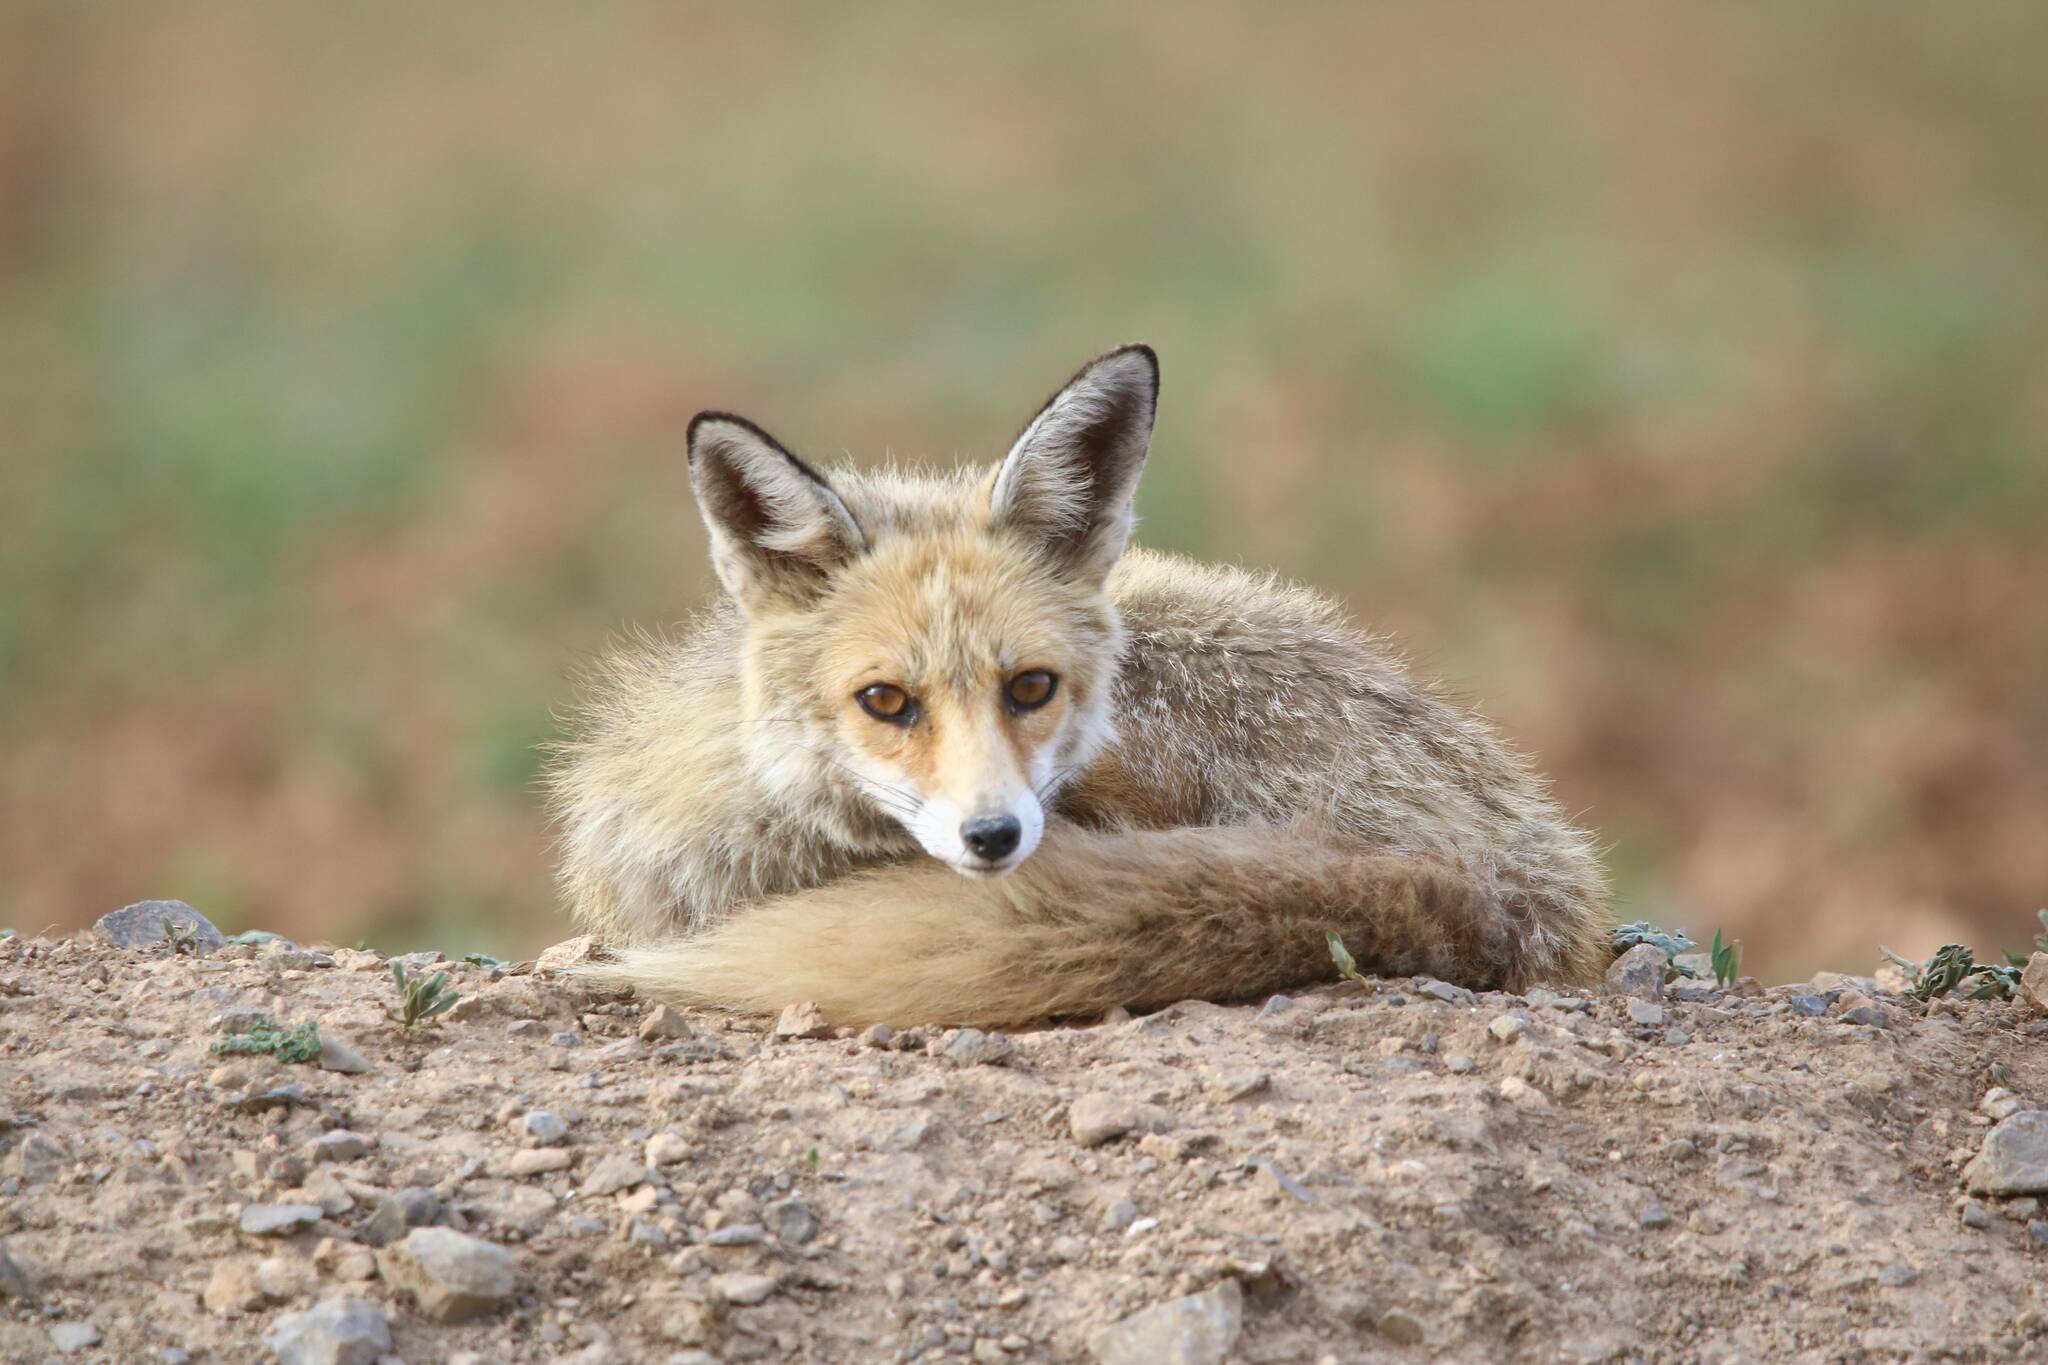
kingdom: Animalia
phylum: Chordata
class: Mammalia
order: Carnivora
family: Canidae
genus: Vulpes
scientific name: Vulpes vulpes
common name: Red fox
